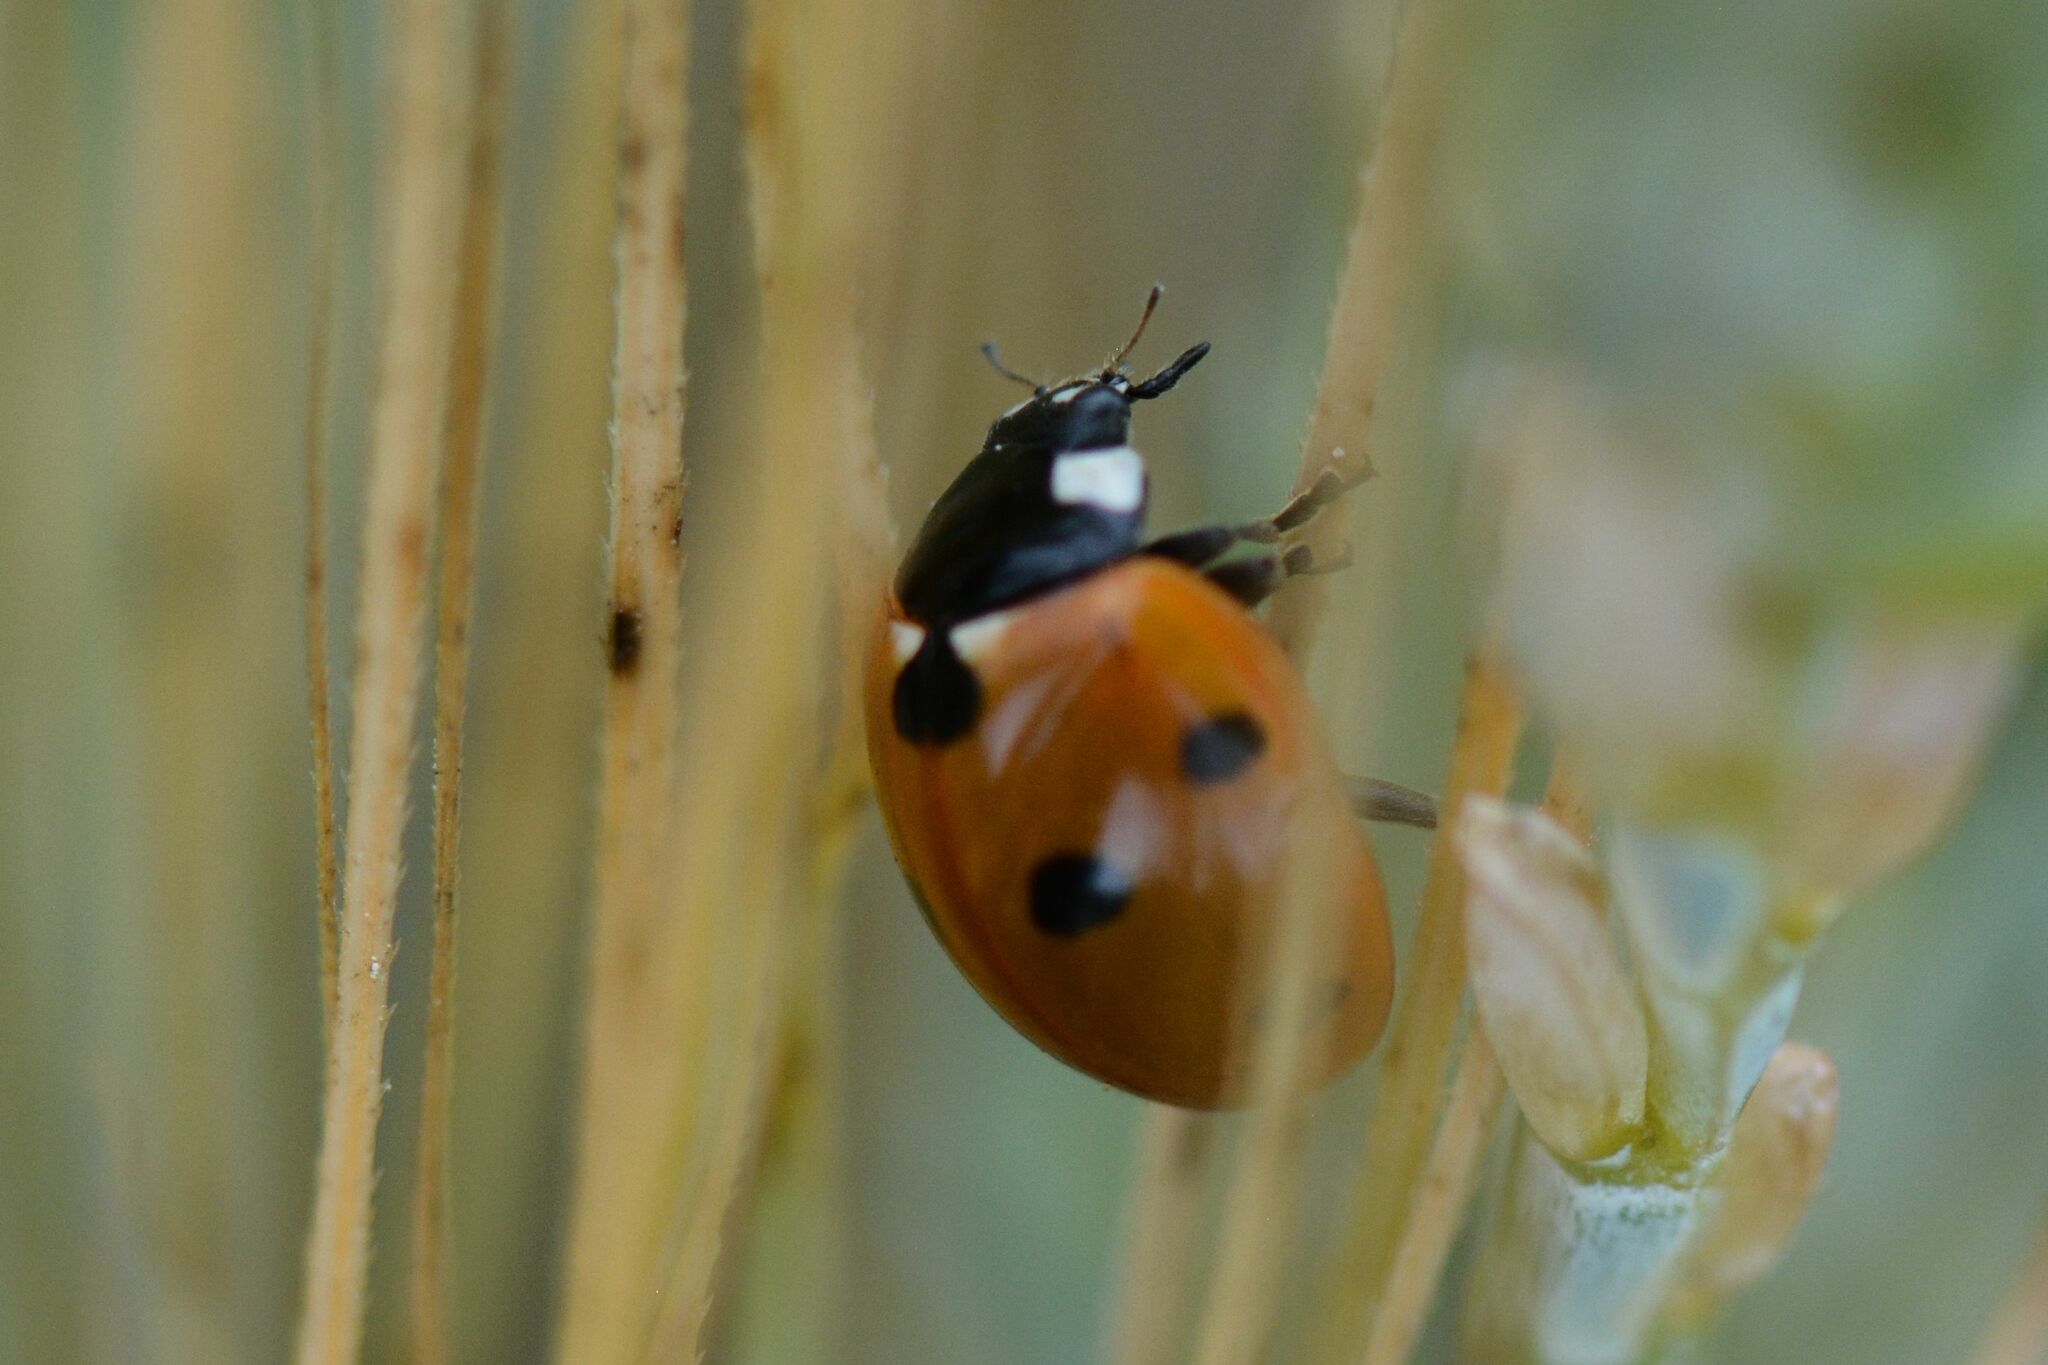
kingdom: Animalia
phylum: Arthropoda
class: Insecta
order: Coleoptera
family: Coccinellidae
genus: Coccinella
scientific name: Coccinella septempunctata
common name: Sevenspotted lady beetle
